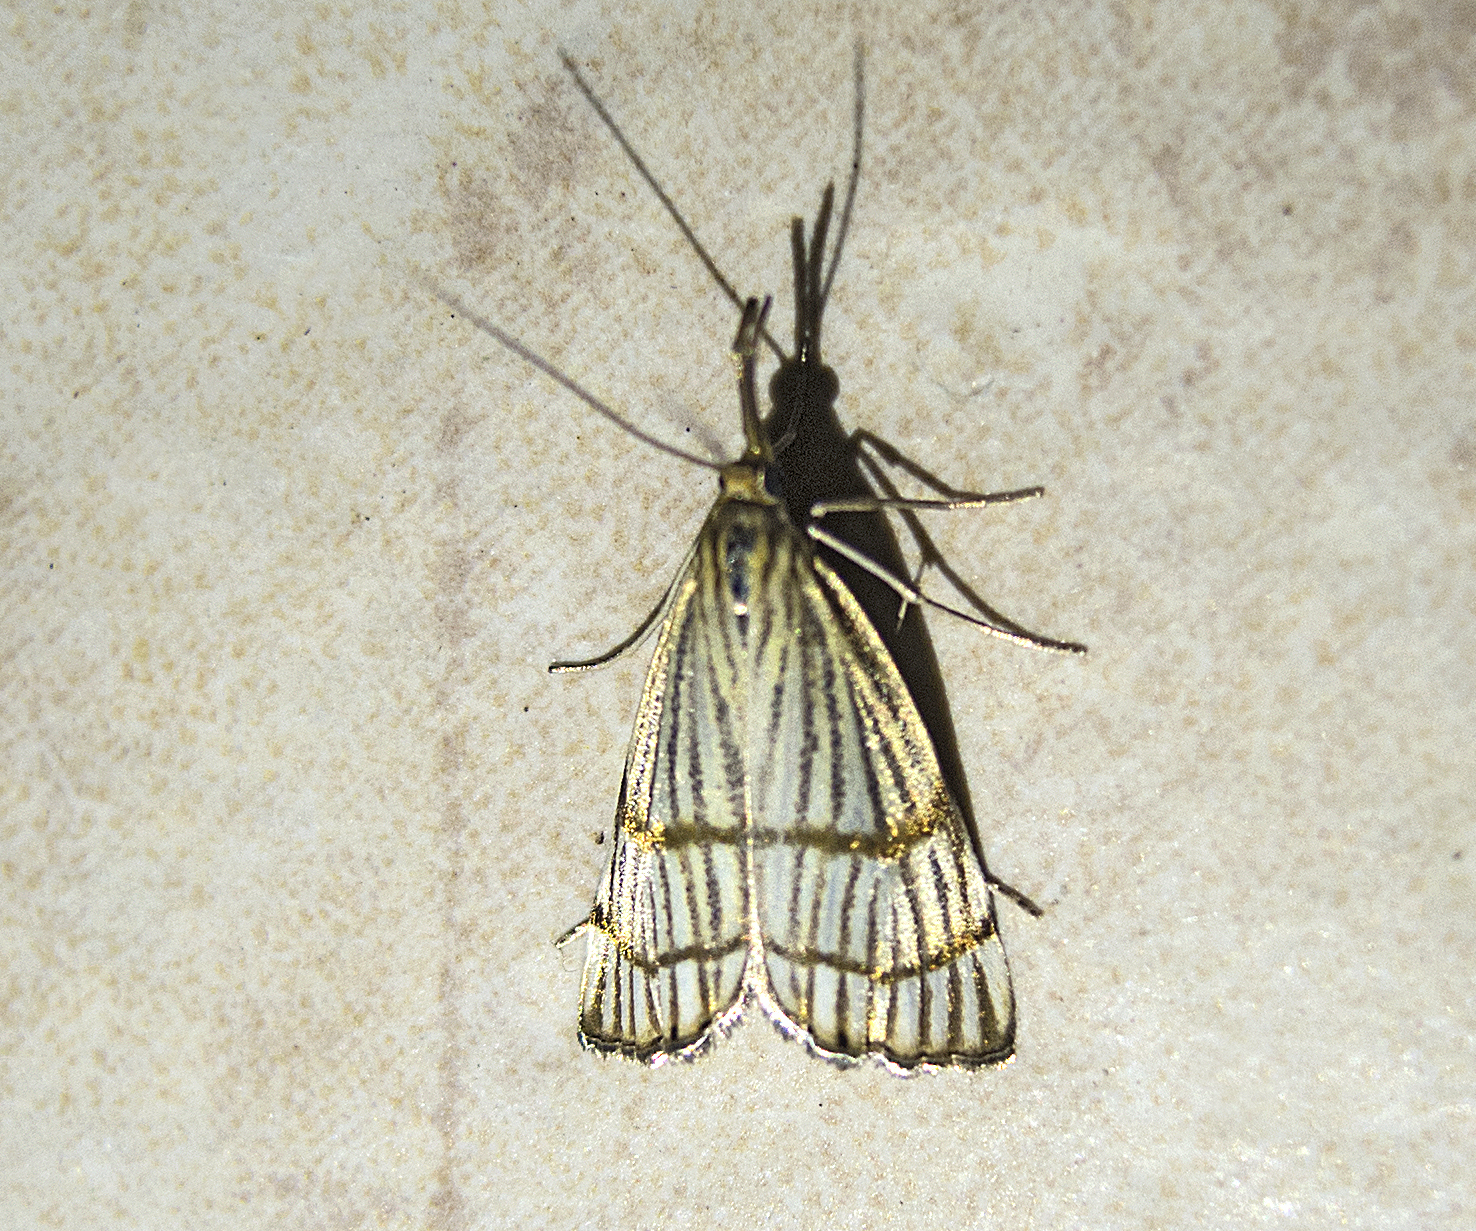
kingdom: Animalia
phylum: Arthropoda
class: Insecta
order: Lepidoptera
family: Crambidae
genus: Chrysocrambus
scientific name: Chrysocrambus linetella
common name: Orange-bar grass-veneer
